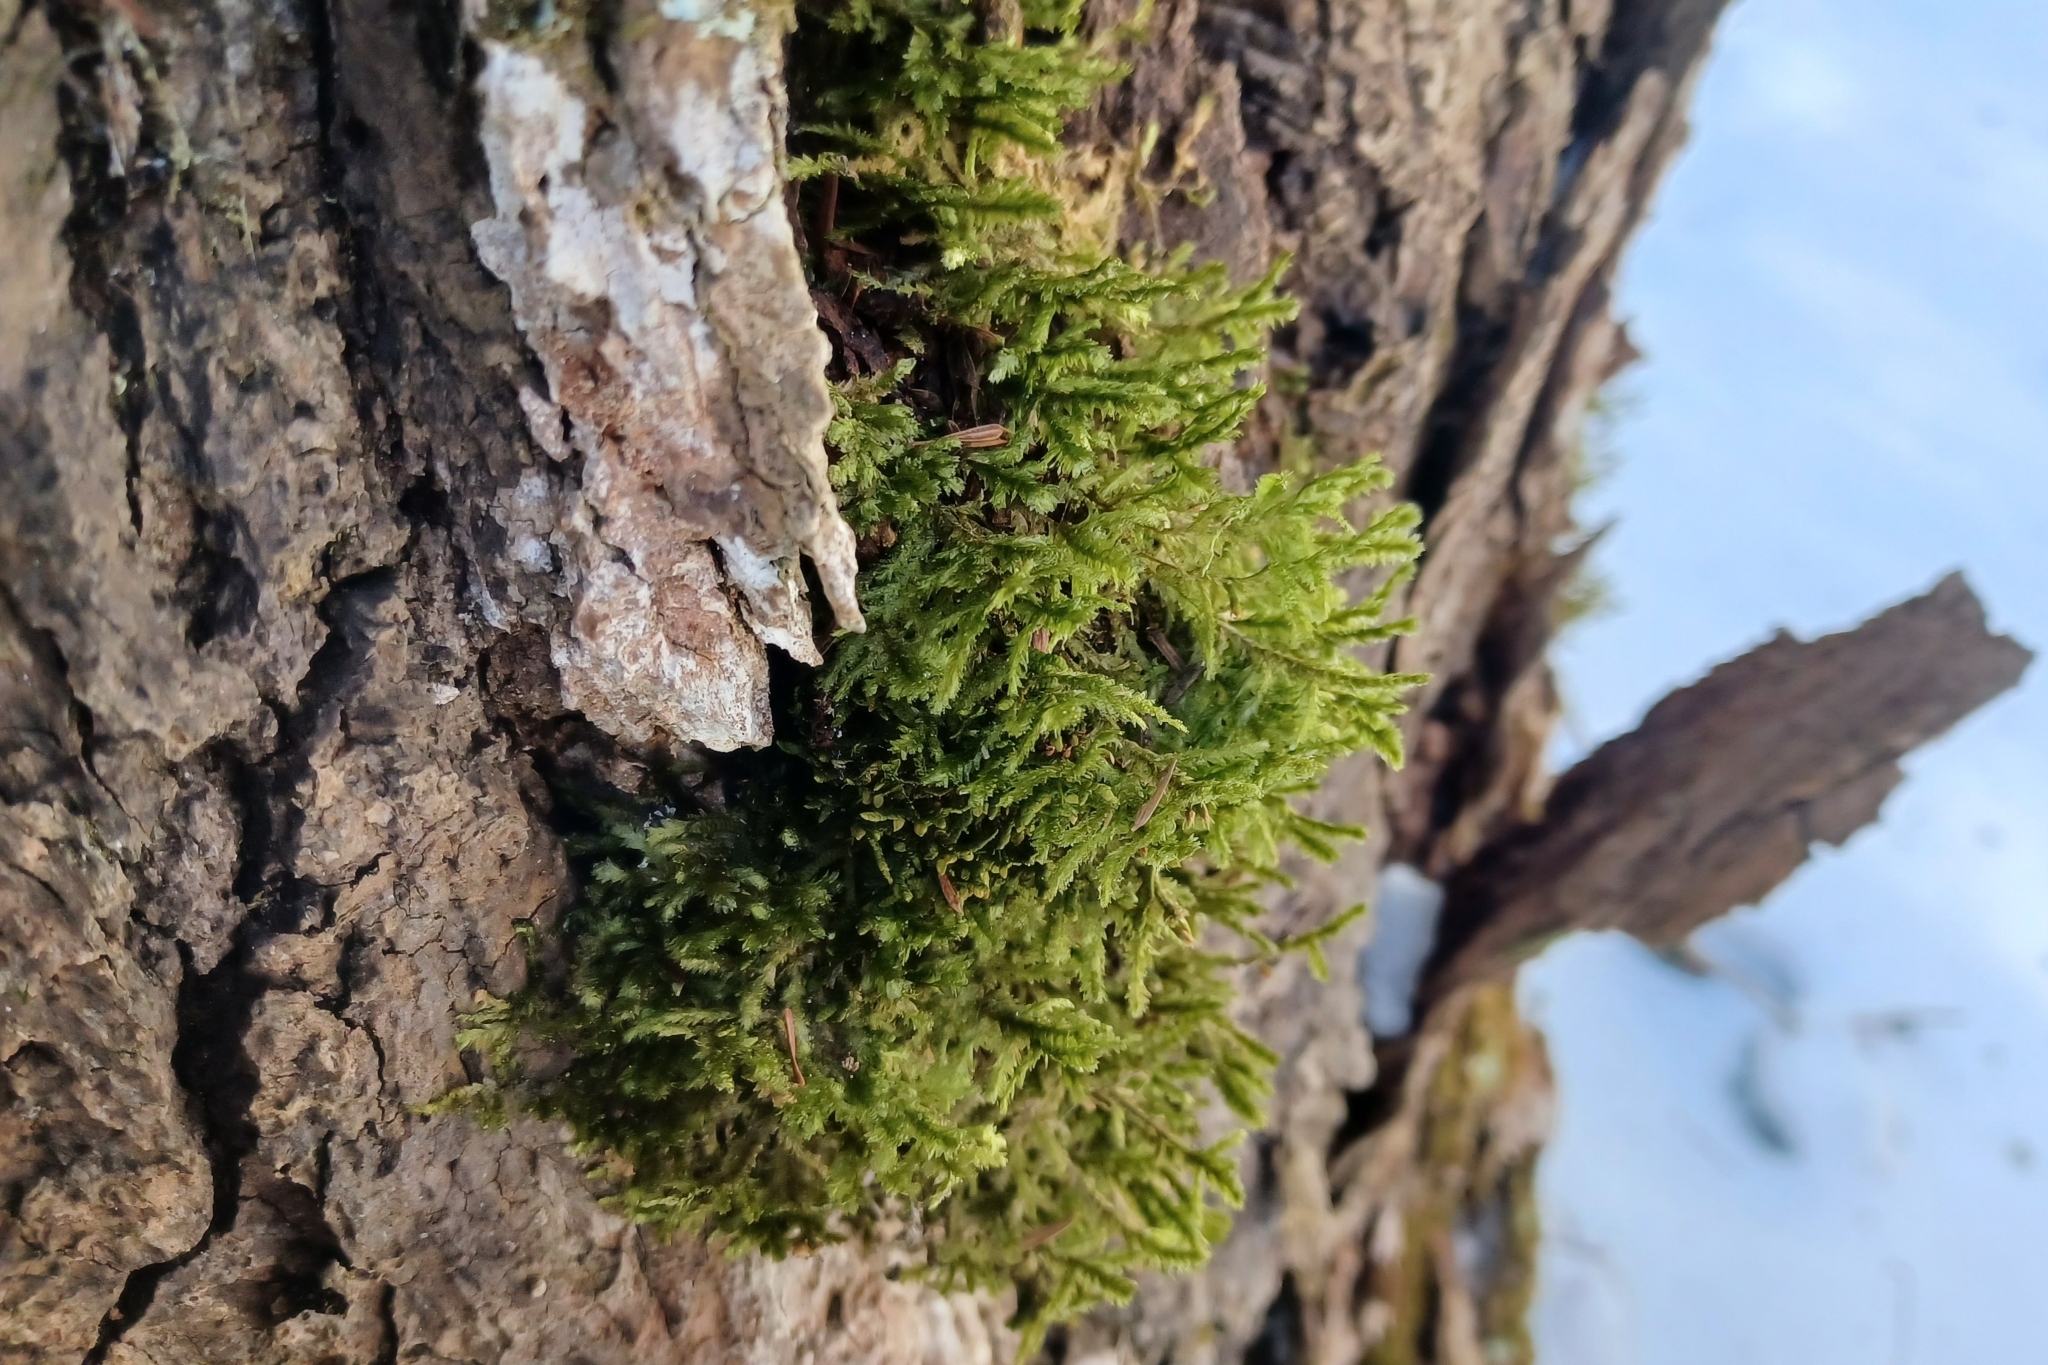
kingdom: Plantae
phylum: Bryophyta
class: Bryopsida
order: Hypnales
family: Neckeraceae
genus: Neckera
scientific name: Neckera pennata
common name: Feathery neckera
